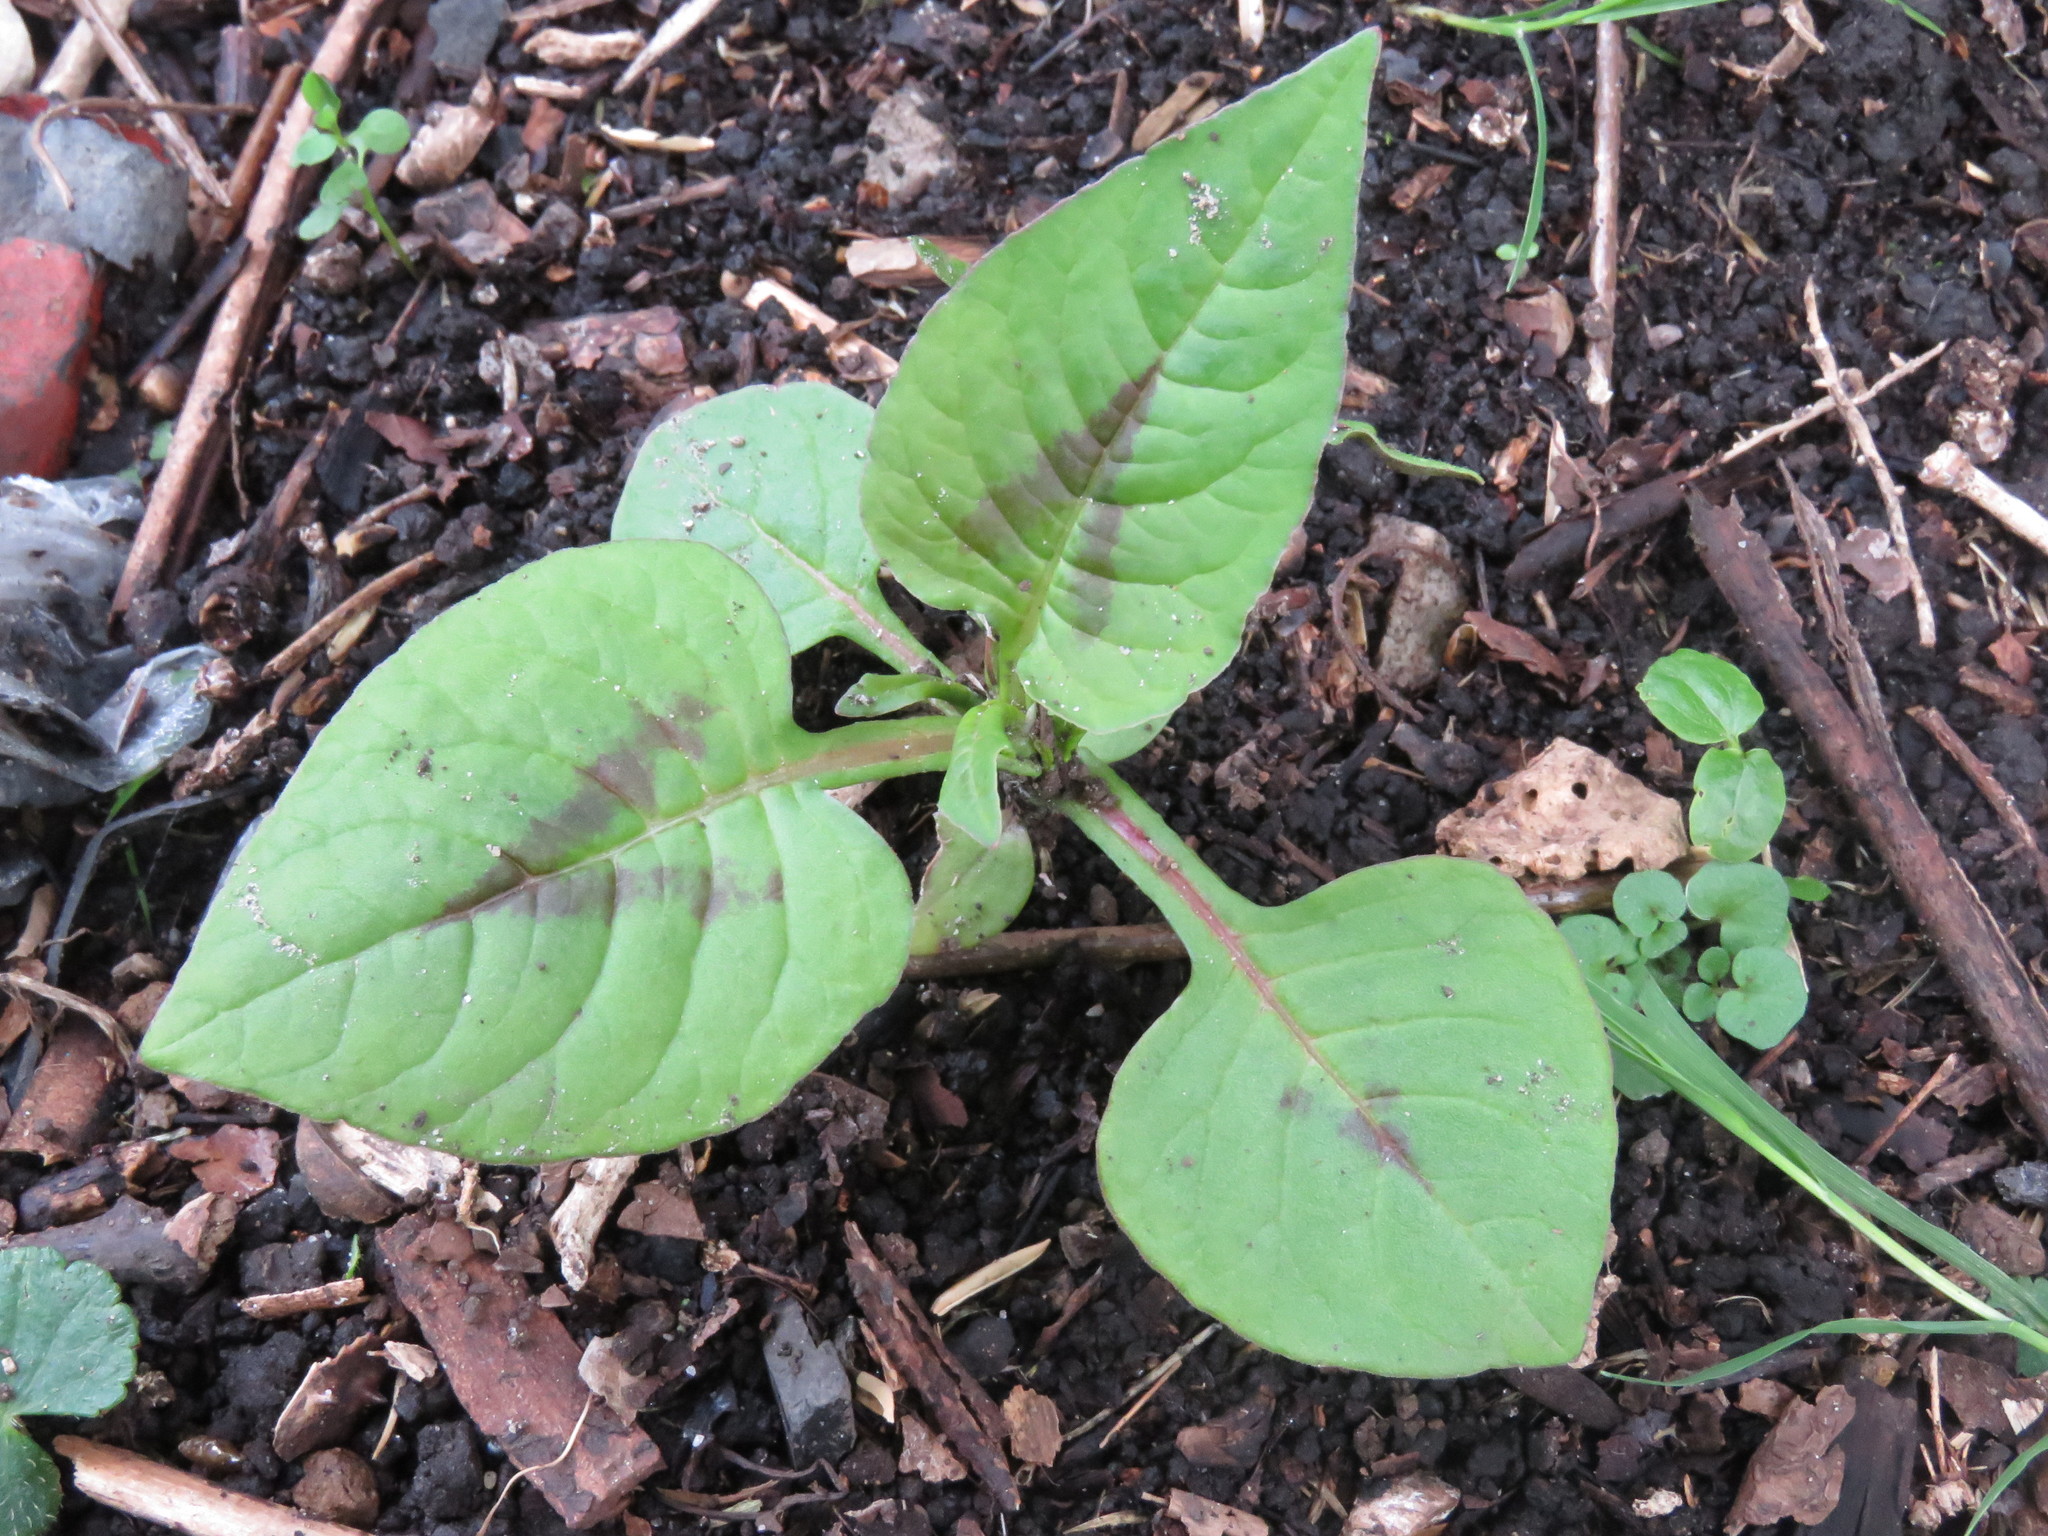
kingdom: Plantae
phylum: Tracheophyta
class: Magnoliopsida
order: Caryophyllales
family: Polygonaceae
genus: Persicaria
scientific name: Persicaria nepalensis
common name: Nepal persicaria
